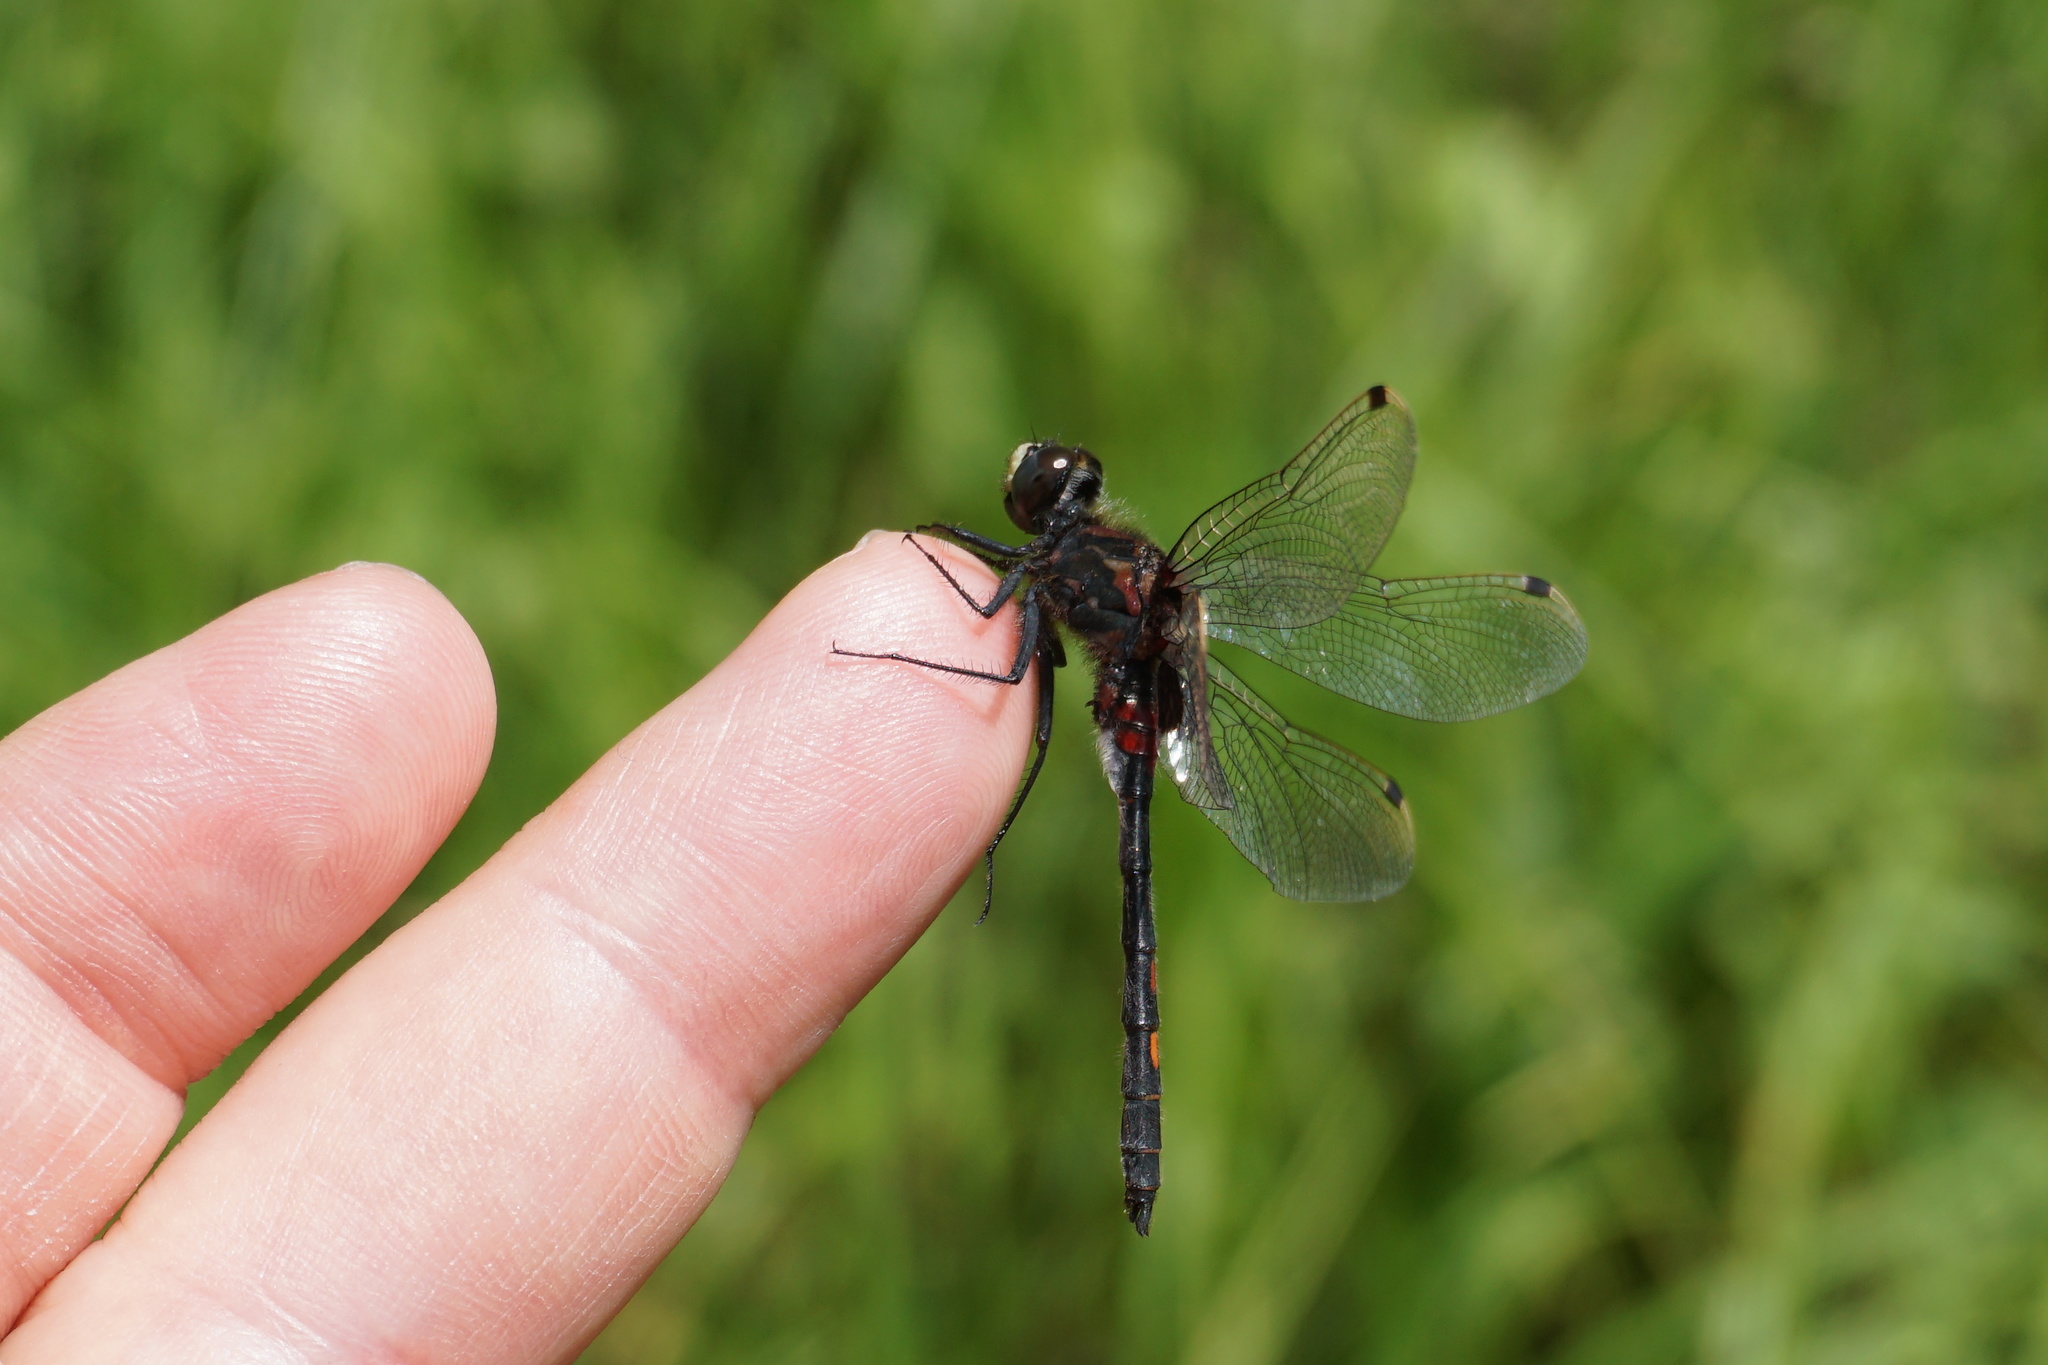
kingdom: Animalia
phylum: Arthropoda
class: Insecta
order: Odonata
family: Libellulidae
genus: Leucorrhinia
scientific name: Leucorrhinia dubia
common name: White-faced darter
